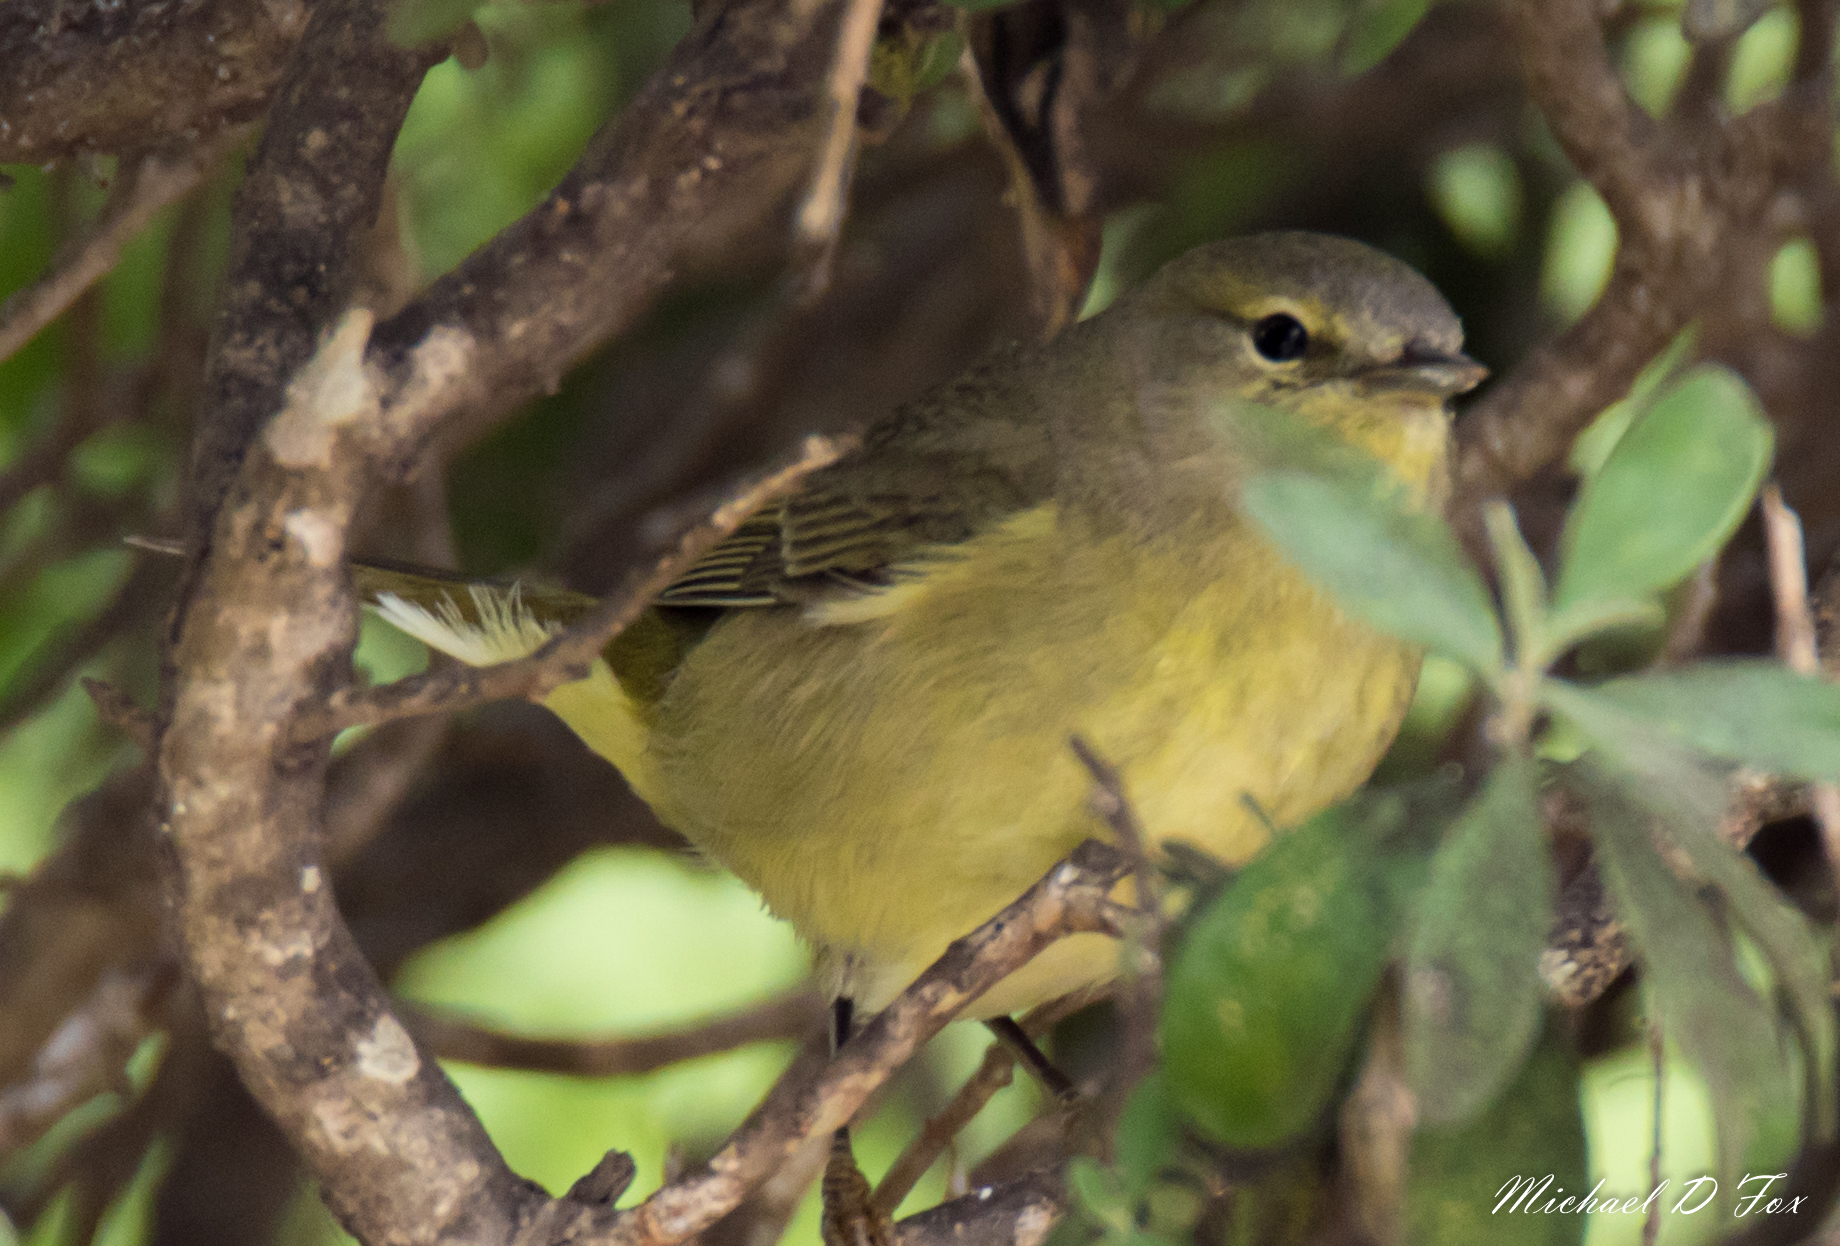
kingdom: Animalia
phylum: Chordata
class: Aves
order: Passeriformes
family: Parulidae
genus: Leiothlypis
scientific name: Leiothlypis celata
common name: Orange-crowned warbler
